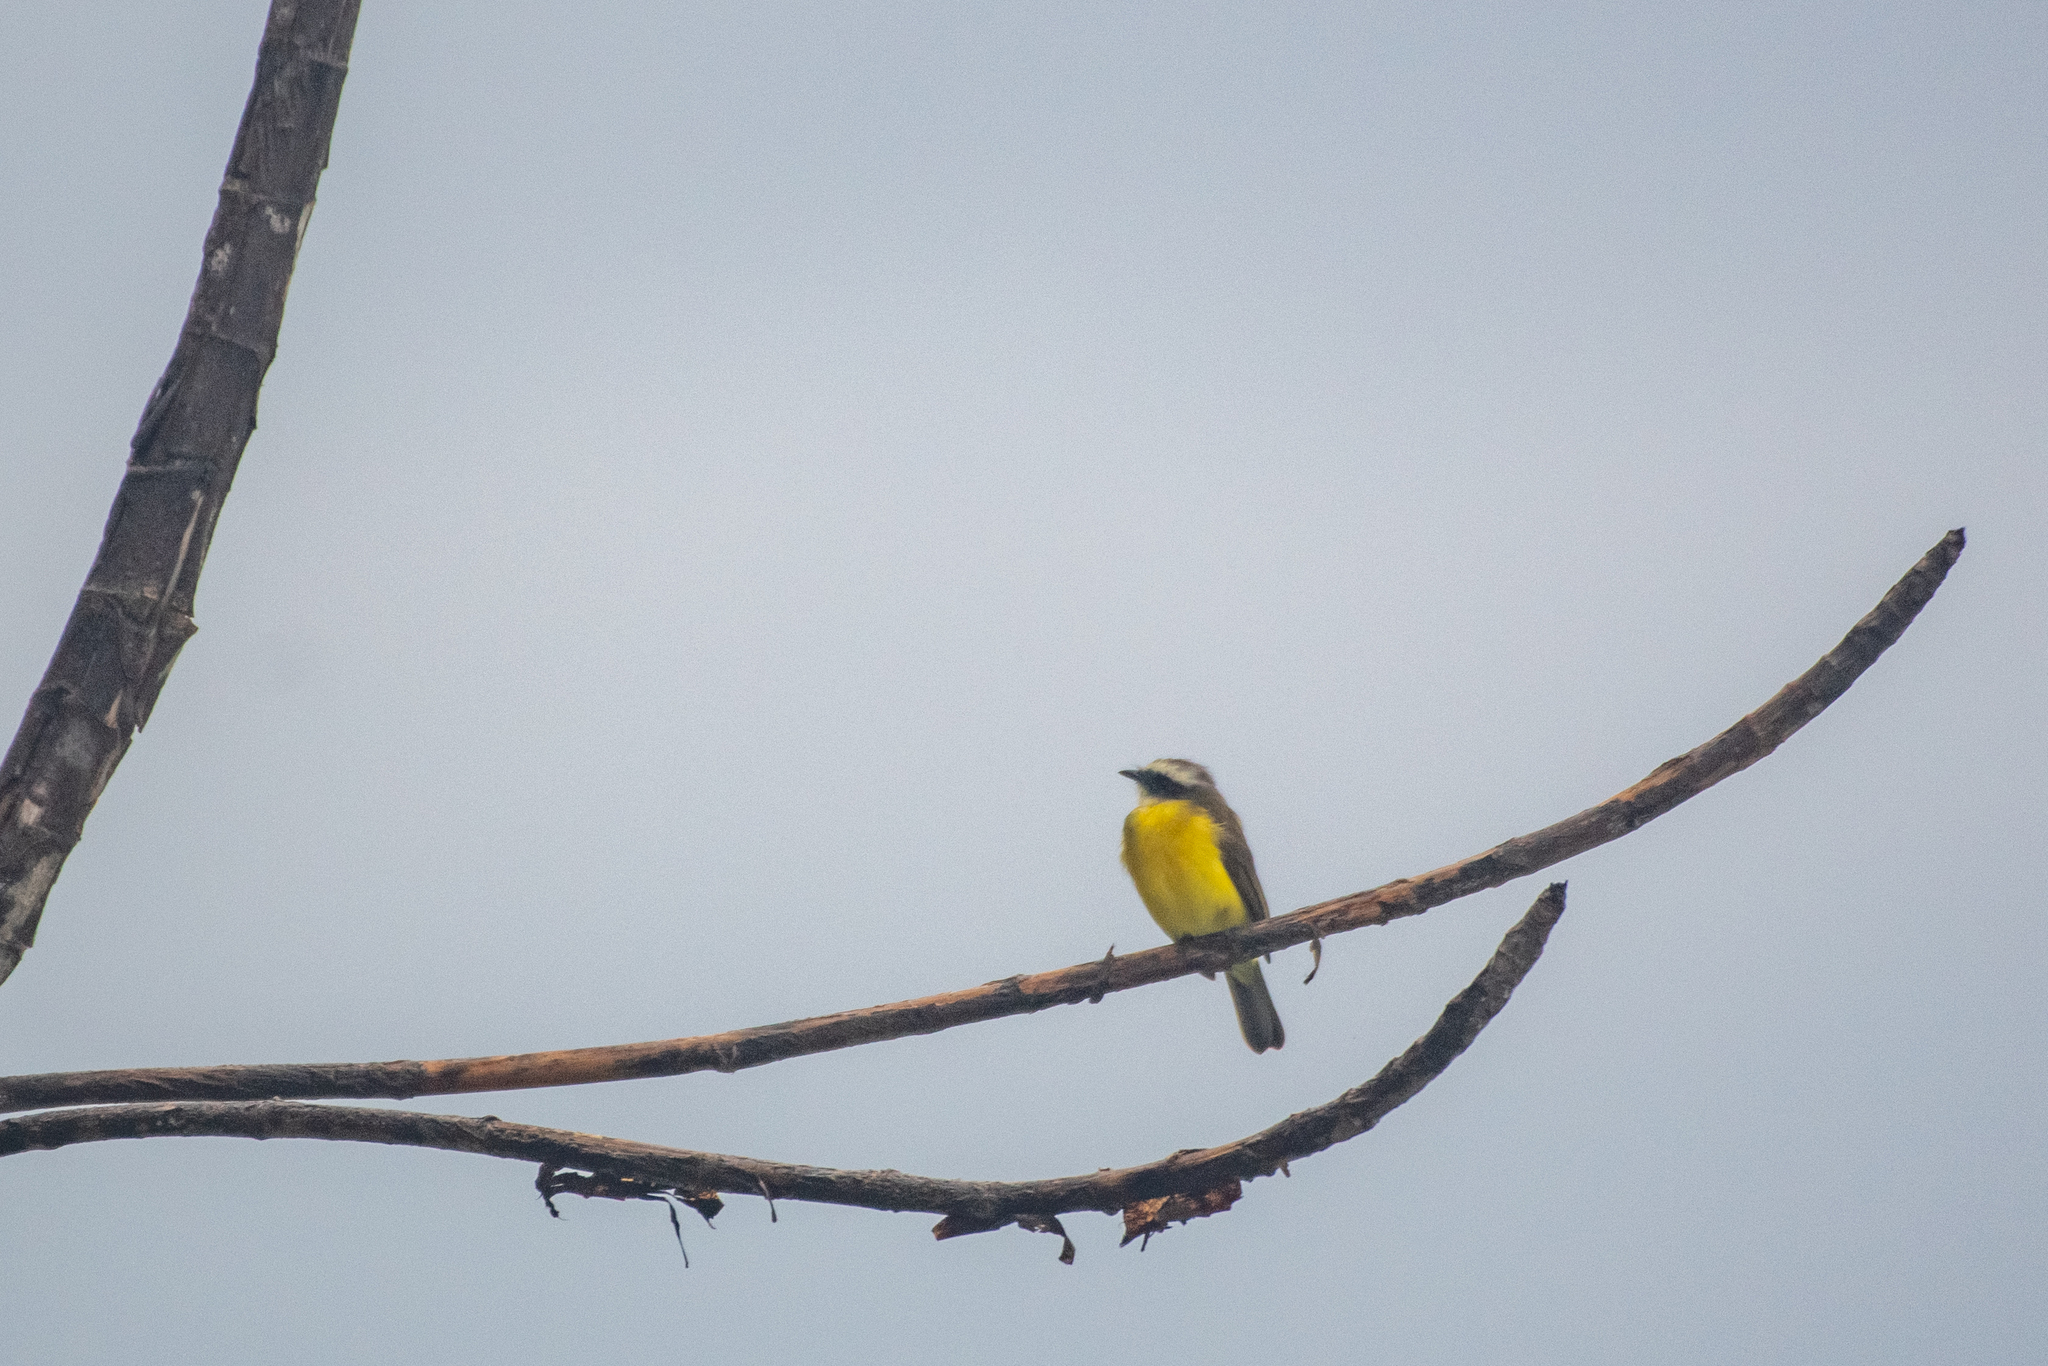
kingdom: Animalia
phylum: Chordata
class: Aves
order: Passeriformes
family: Tyrannidae
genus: Myiozetetes
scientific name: Myiozetetes similis
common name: Social flycatcher
